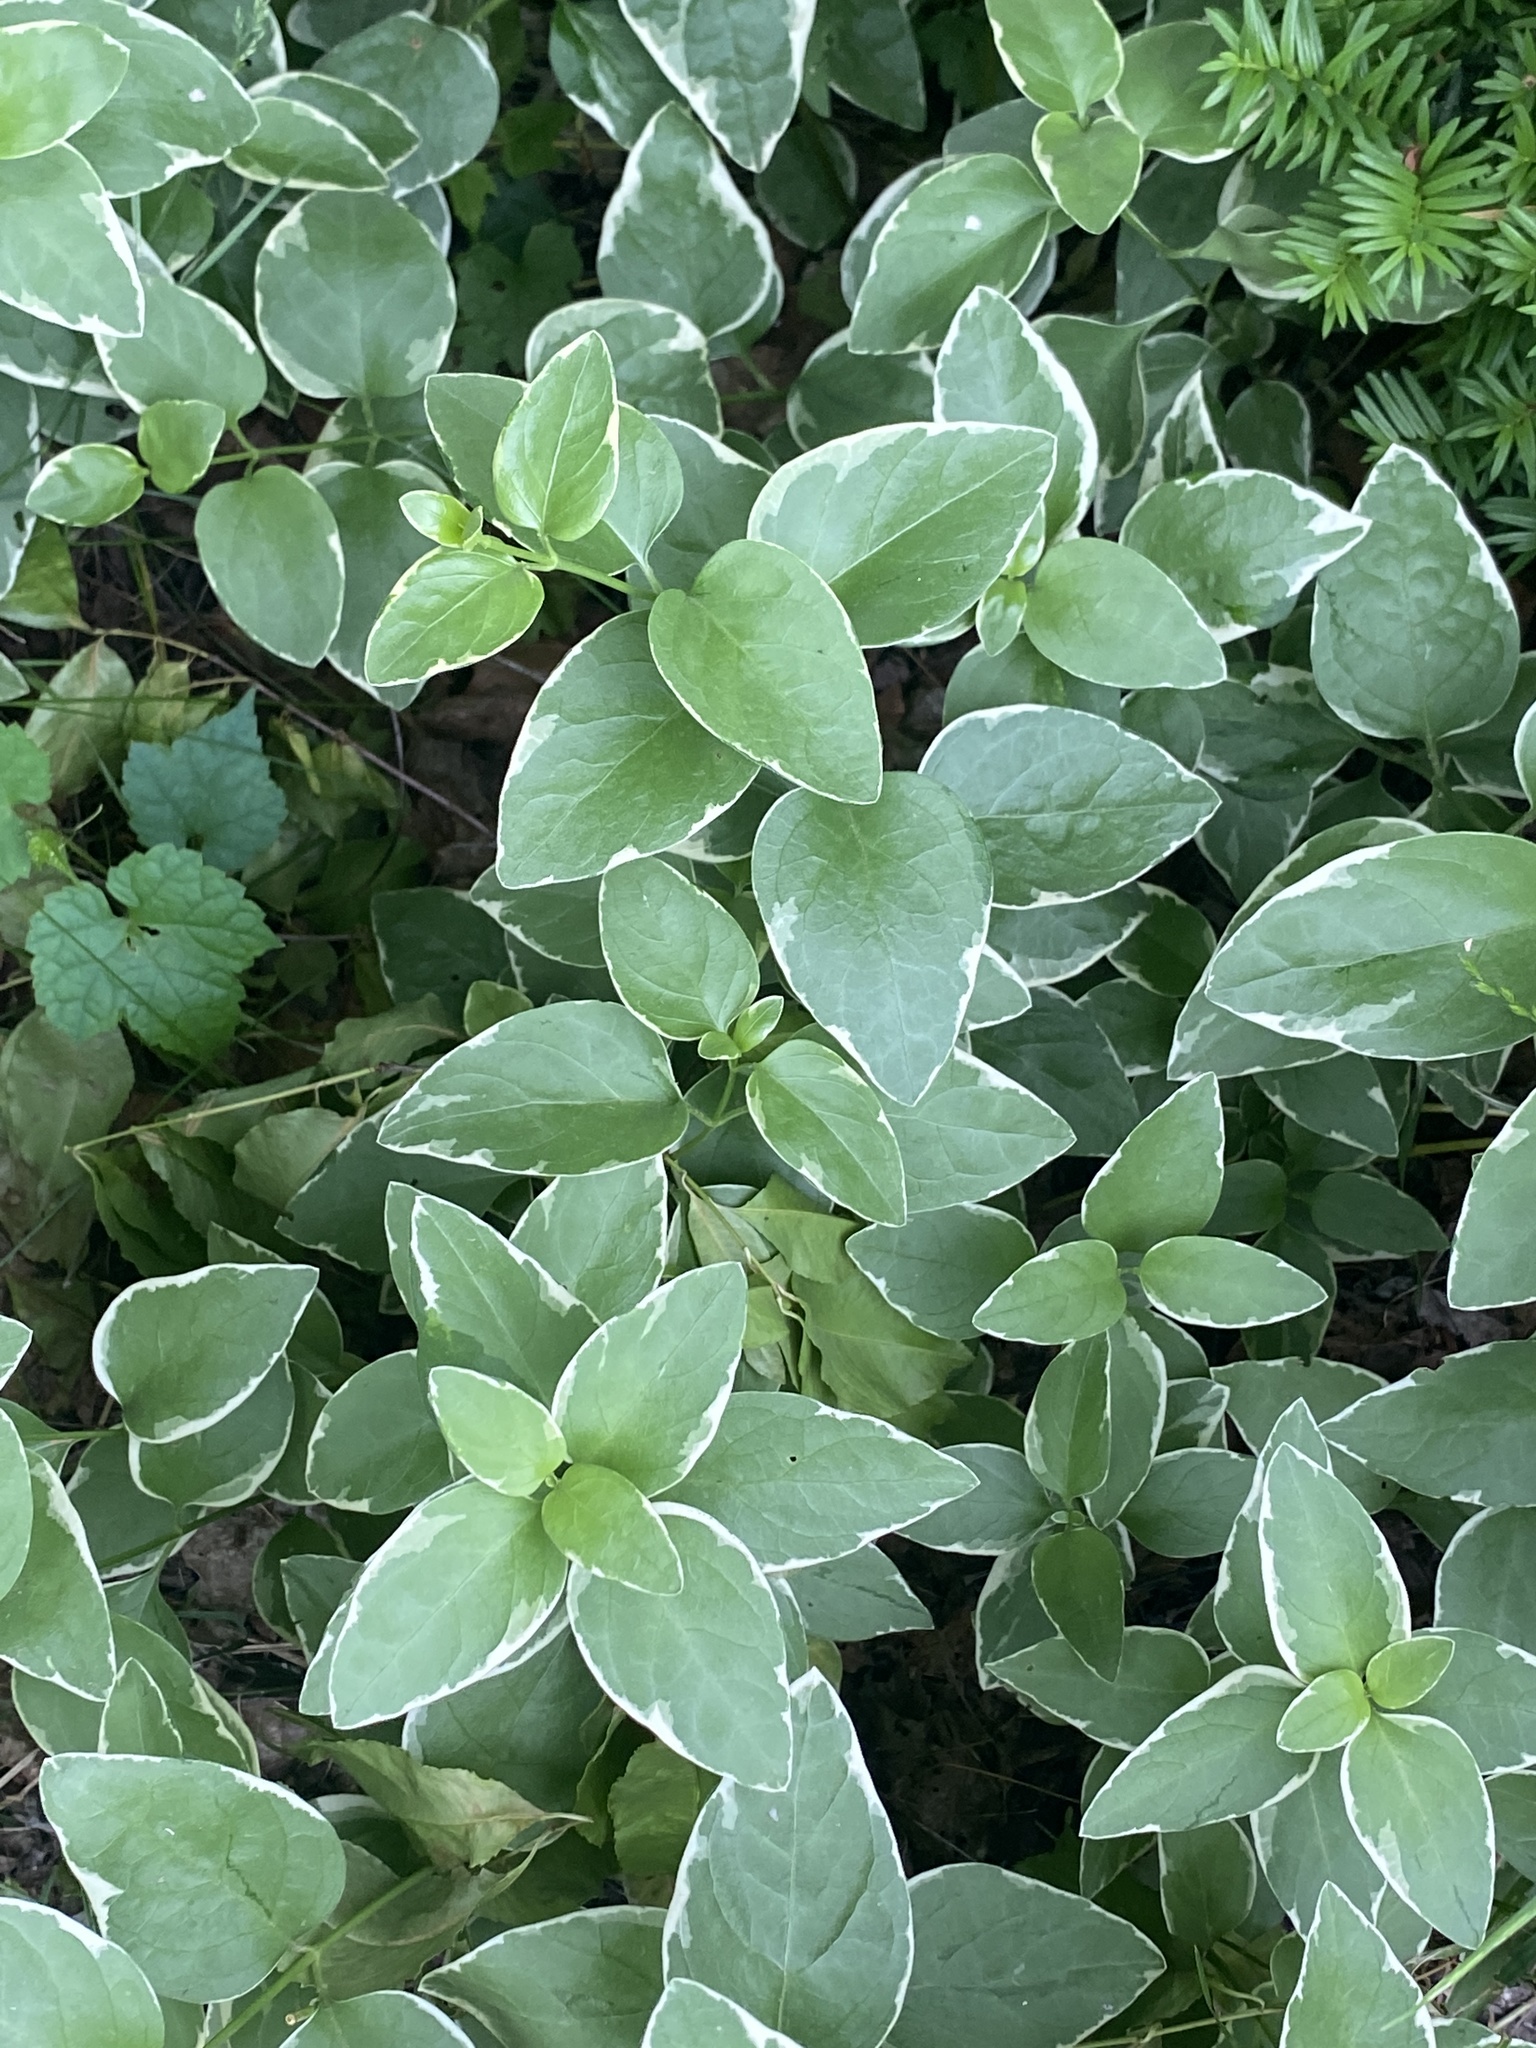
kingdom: Plantae
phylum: Tracheophyta
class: Magnoliopsida
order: Gentianales
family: Apocynaceae
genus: Vinca
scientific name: Vinca major
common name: Greater periwinkle
